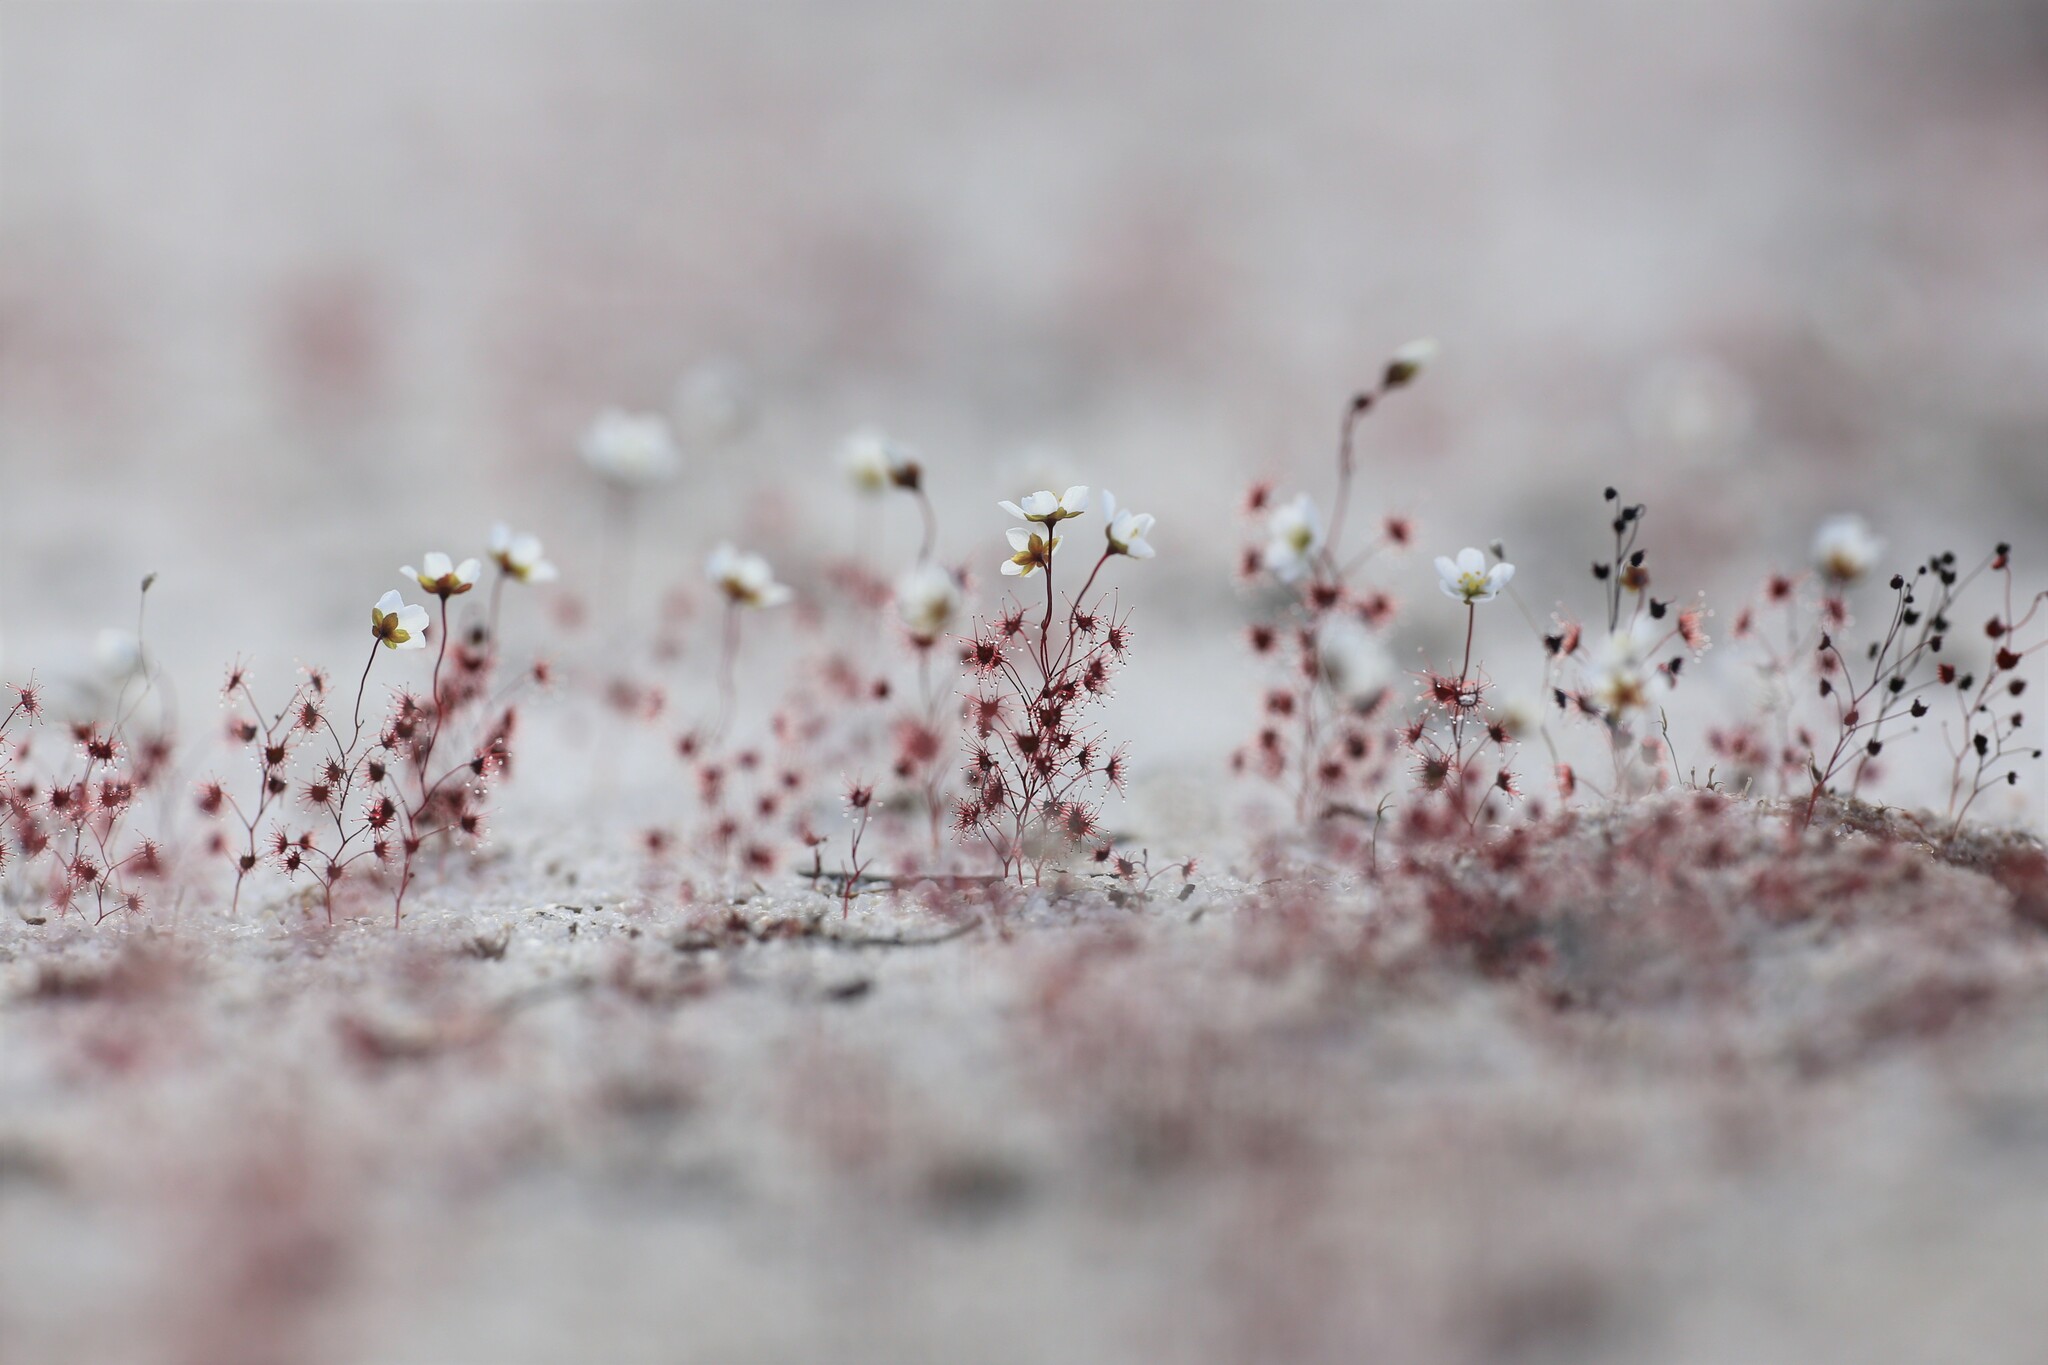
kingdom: Plantae
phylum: Tracheophyta
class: Magnoliopsida
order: Caryophyllales
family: Droseraceae
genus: Drosera
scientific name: Drosera salina
